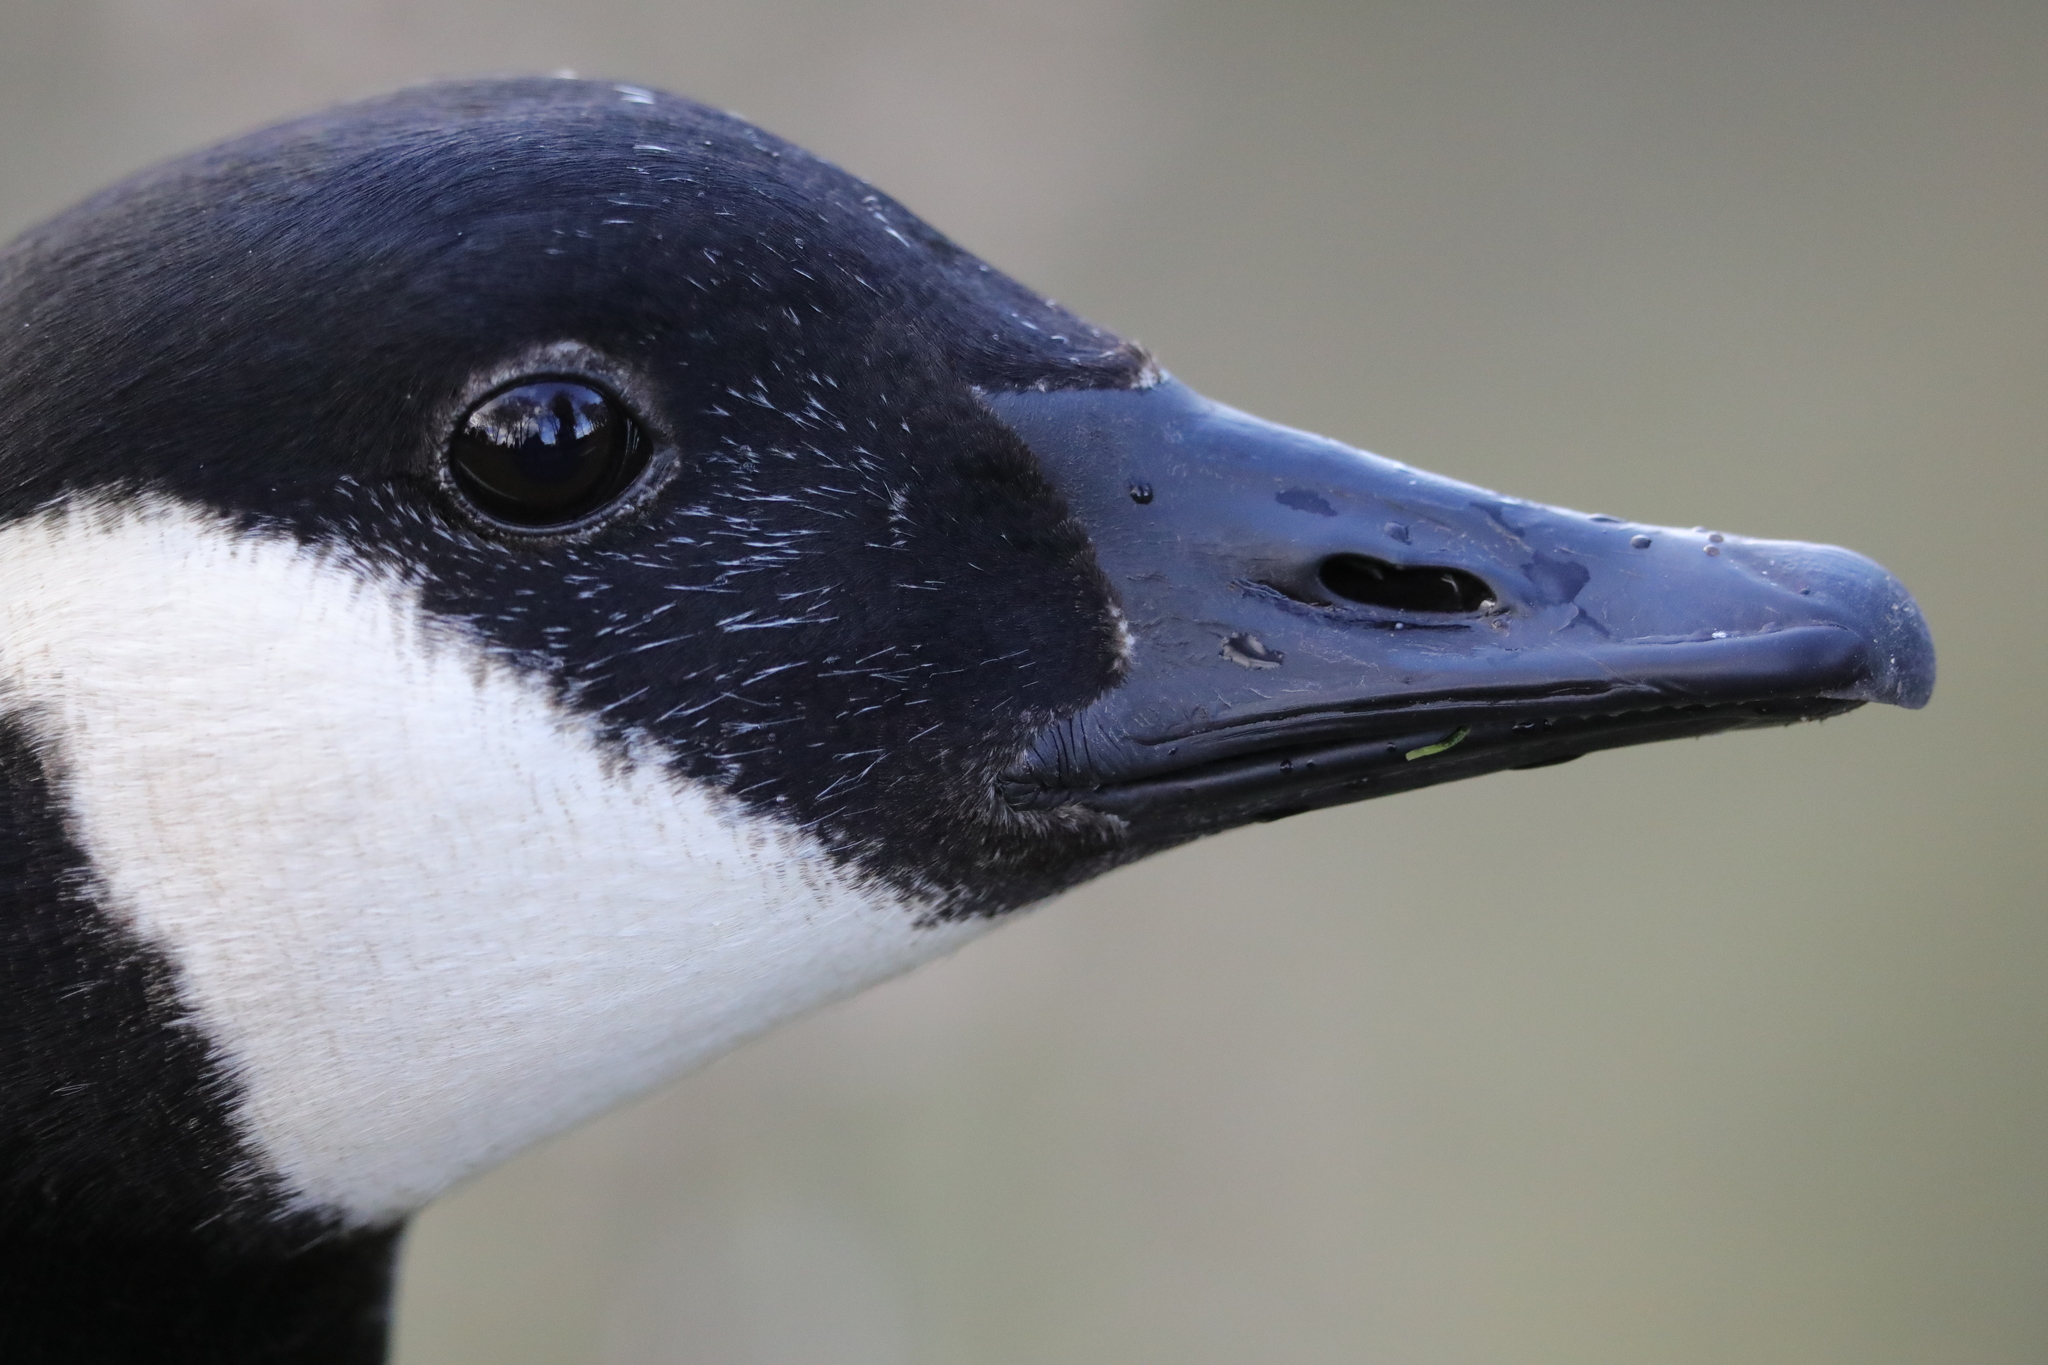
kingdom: Animalia
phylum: Chordata
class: Aves
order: Anseriformes
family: Anatidae
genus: Branta
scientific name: Branta canadensis
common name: Canada goose
